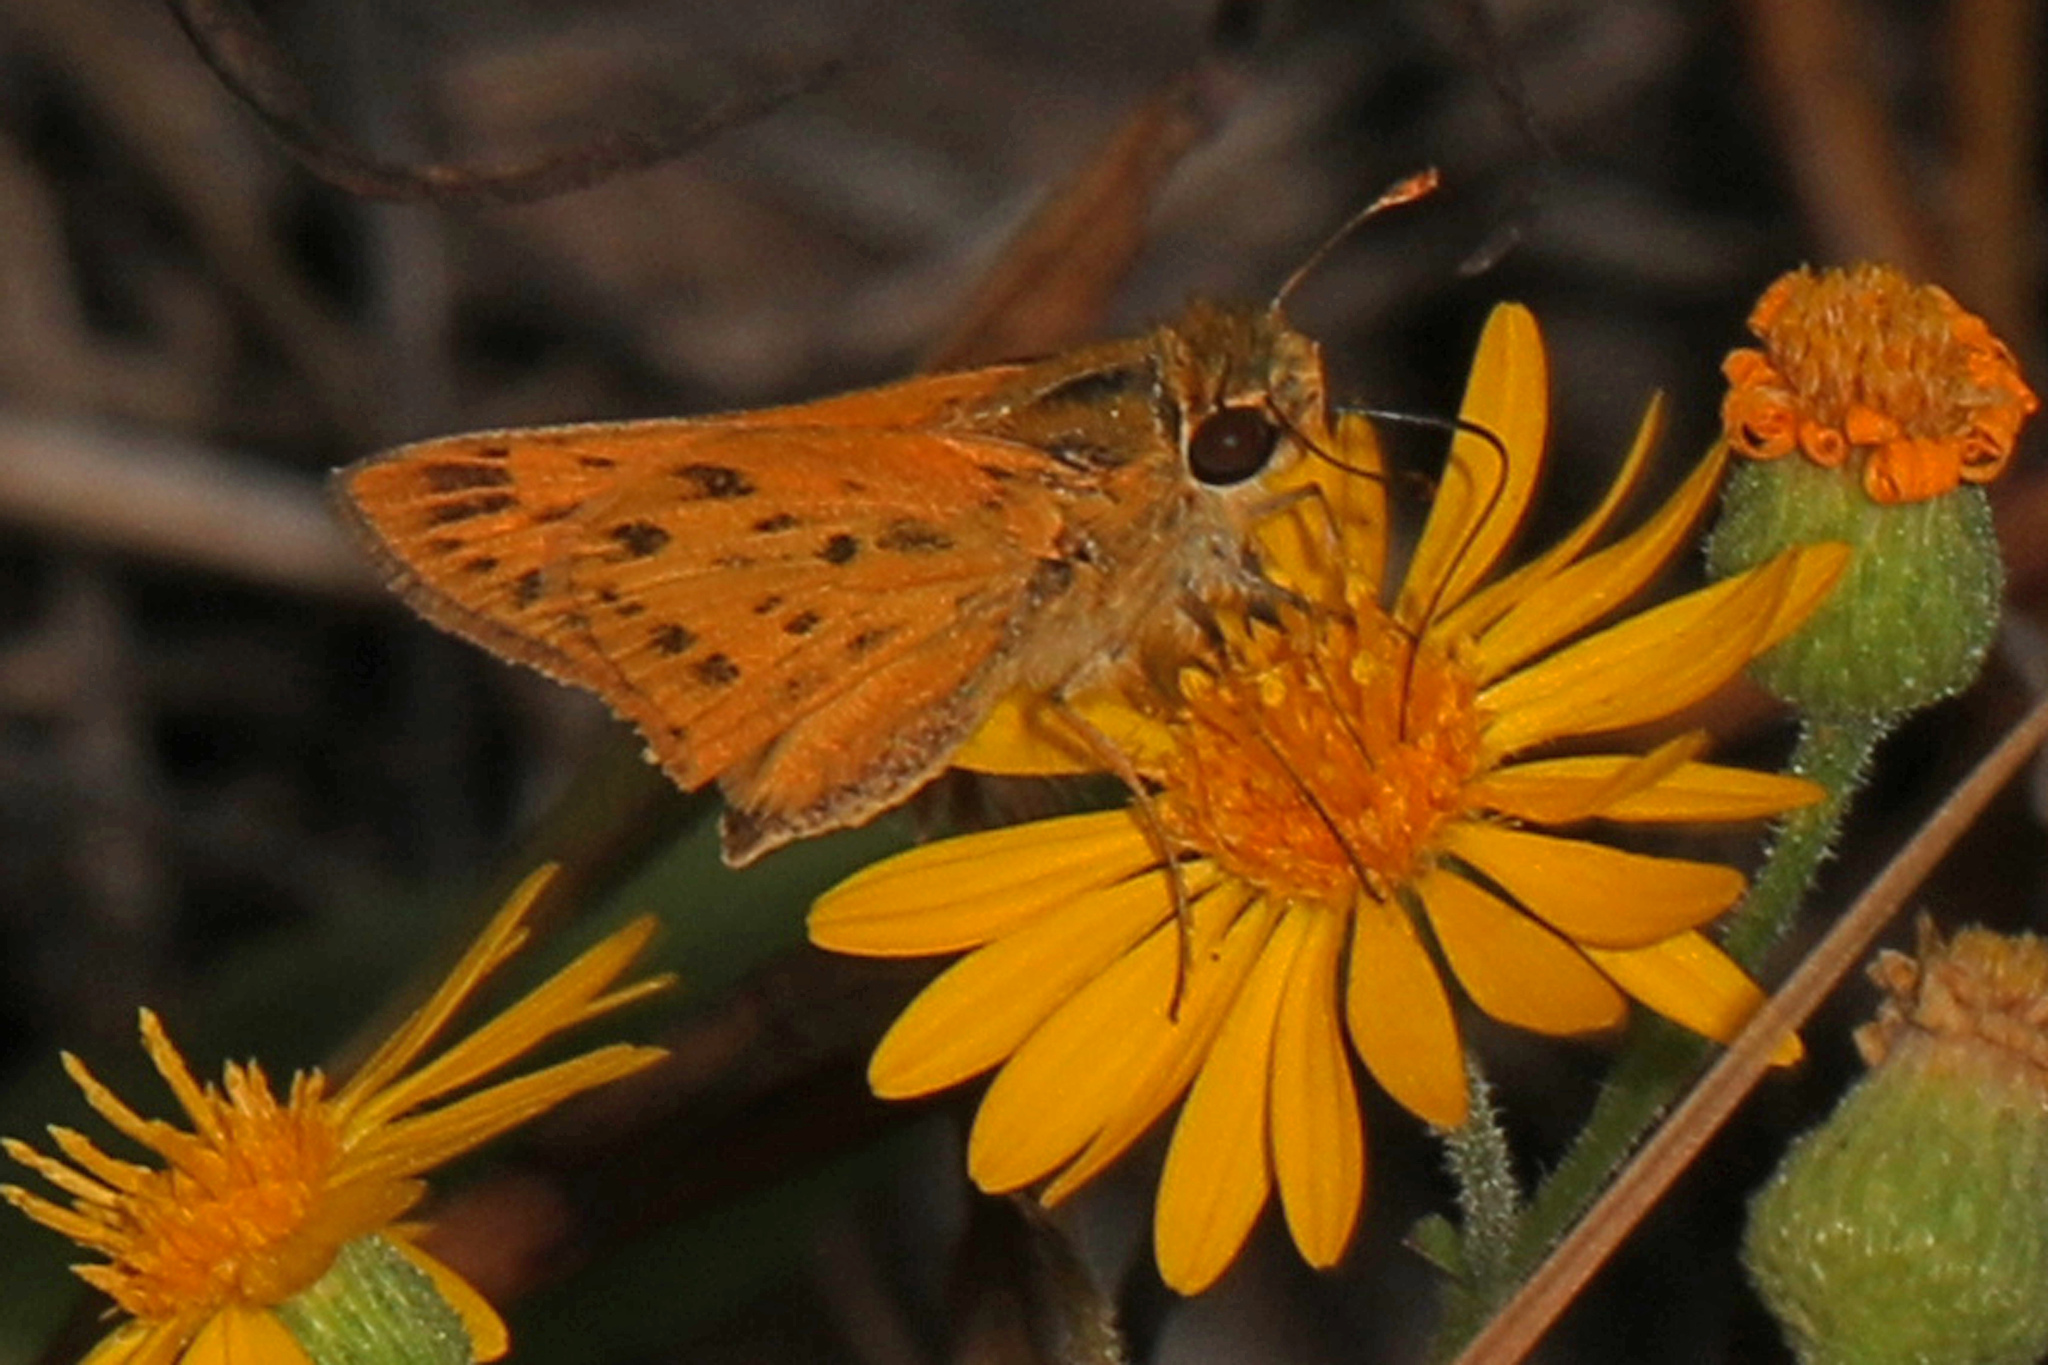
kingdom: Animalia
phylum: Arthropoda
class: Insecta
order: Lepidoptera
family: Hesperiidae
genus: Hylephila
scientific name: Hylephila phyleus
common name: Fiery skipper
